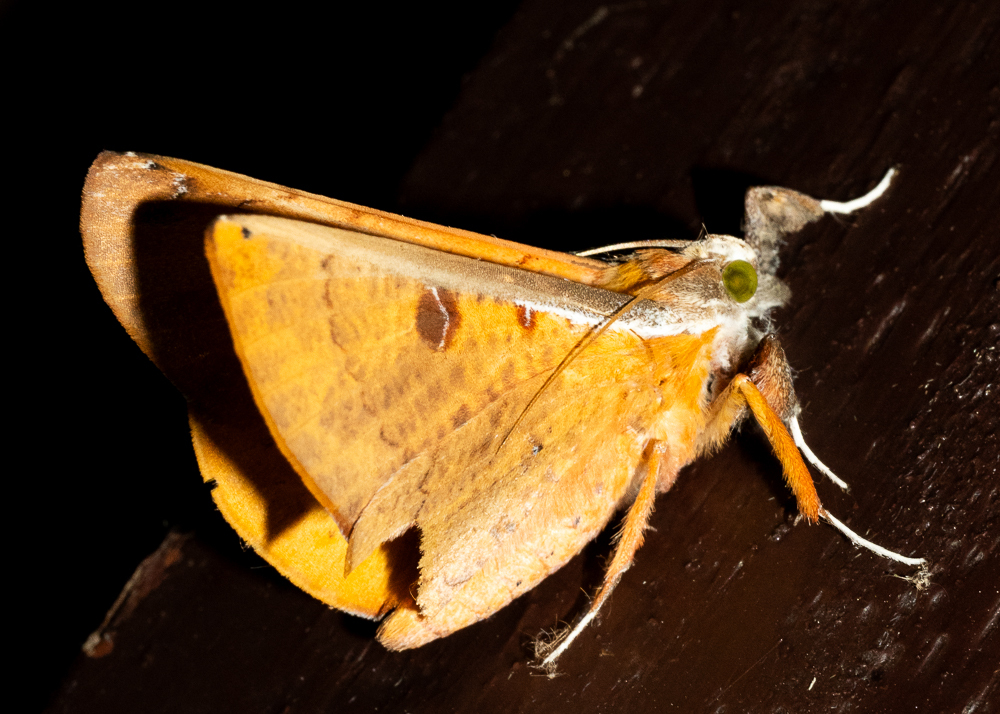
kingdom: Animalia
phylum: Arthropoda
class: Insecta
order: Lepidoptera
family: Erebidae
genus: Bematha
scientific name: Bematha extensa
